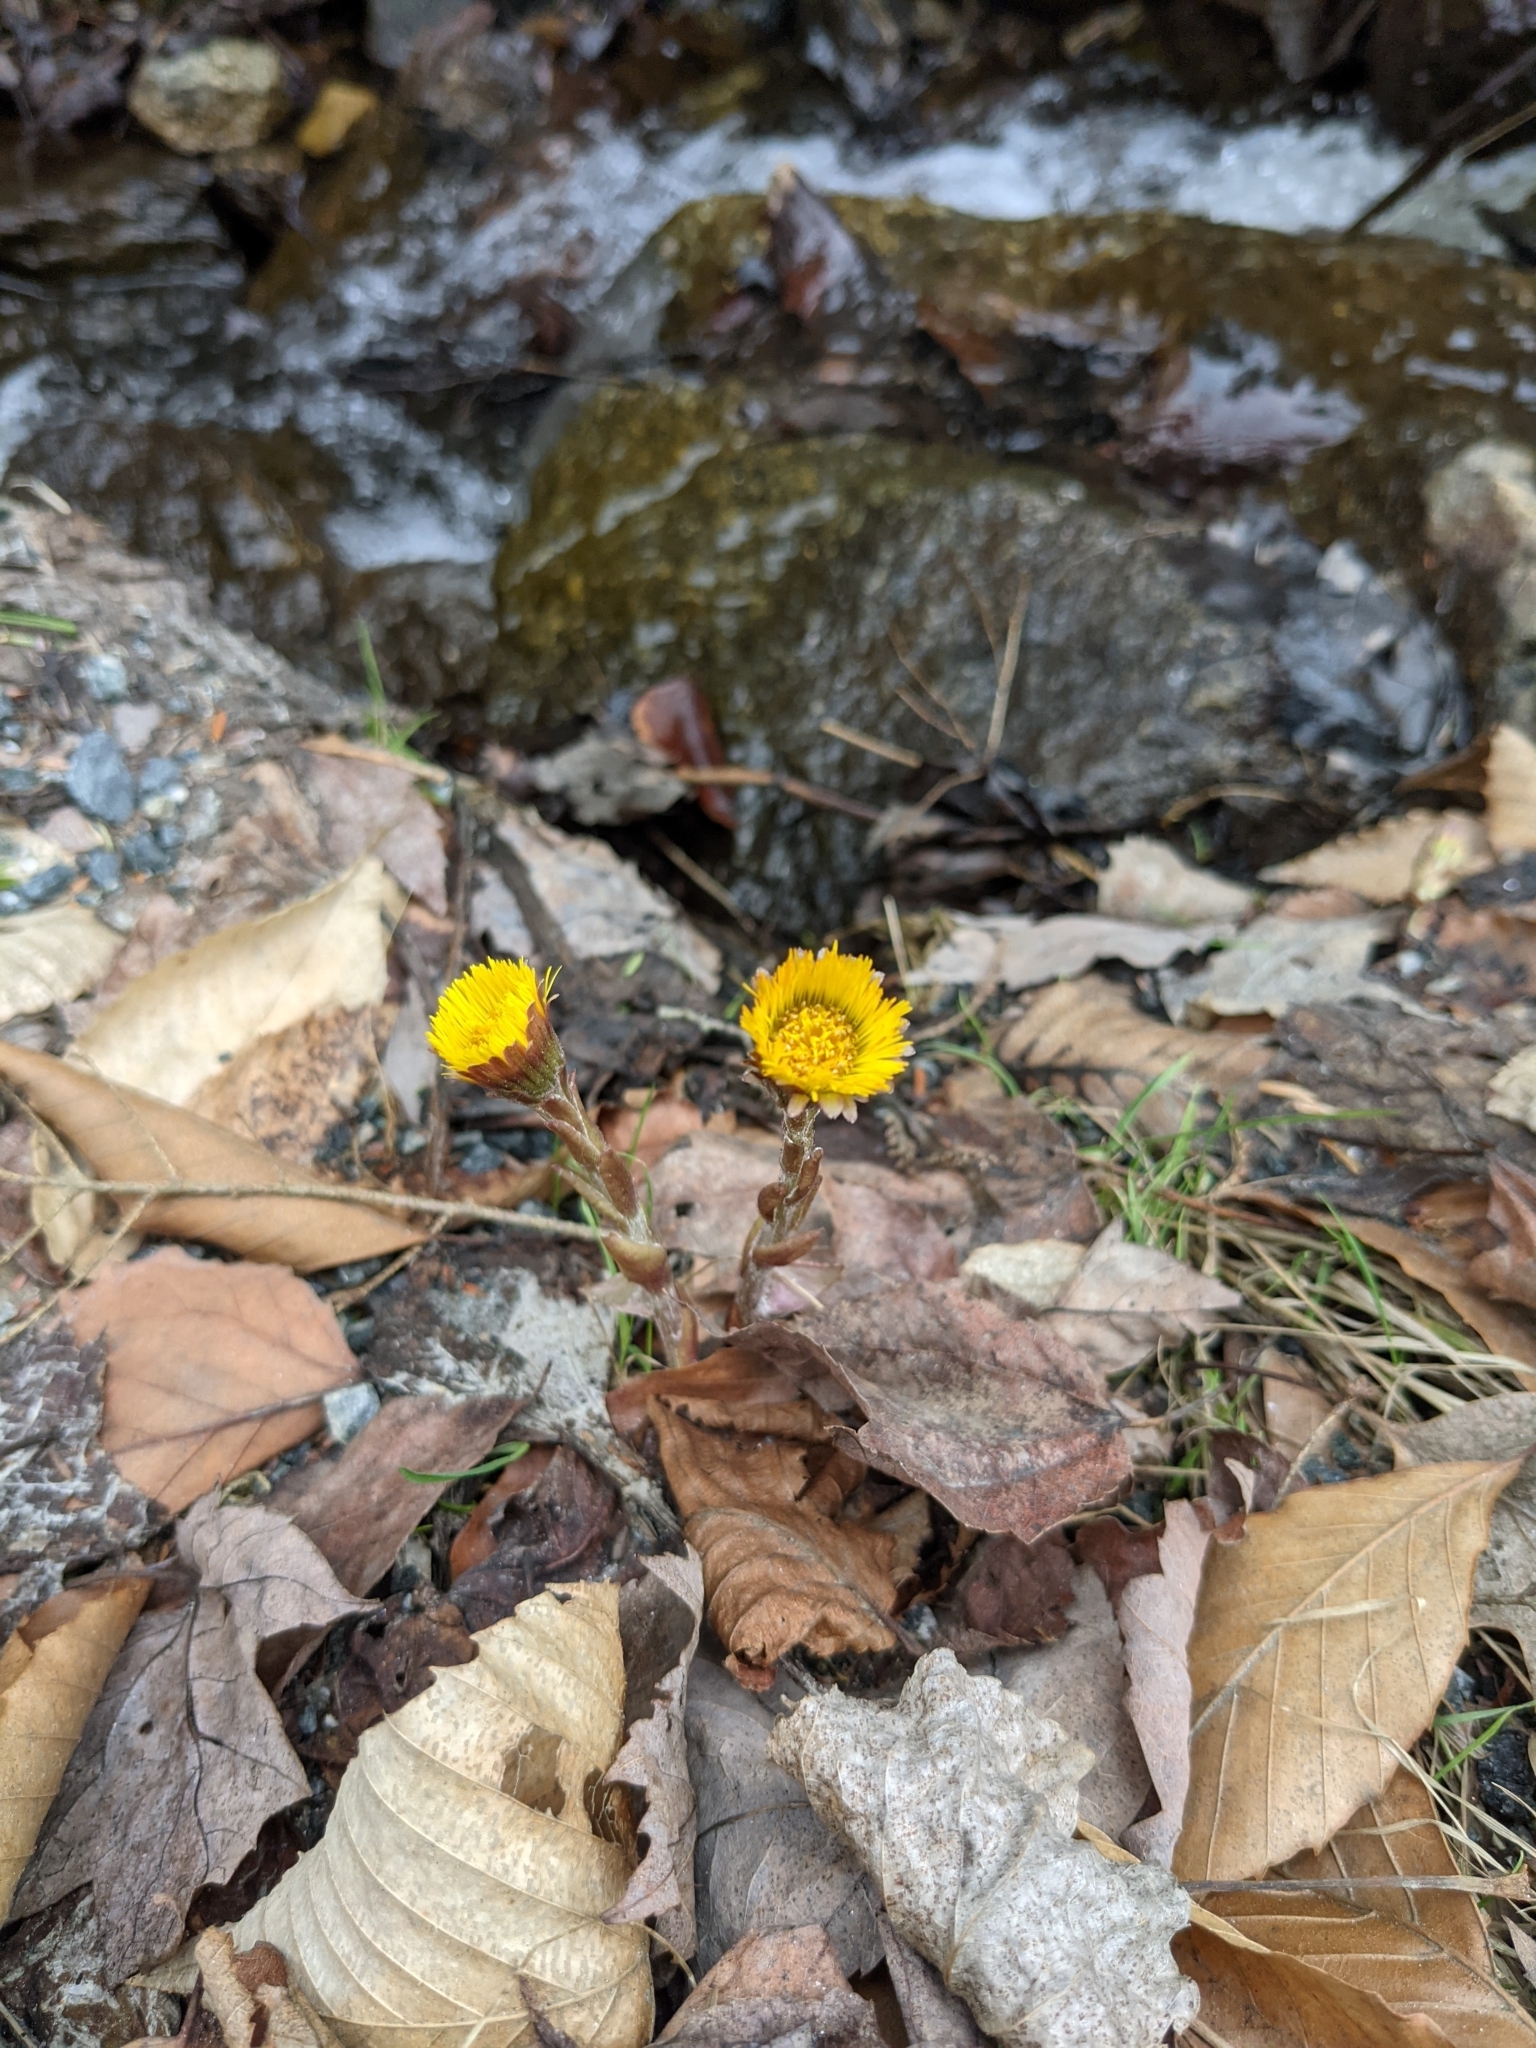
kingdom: Plantae
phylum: Tracheophyta
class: Magnoliopsida
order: Asterales
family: Asteraceae
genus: Tussilago
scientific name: Tussilago farfara
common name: Coltsfoot
